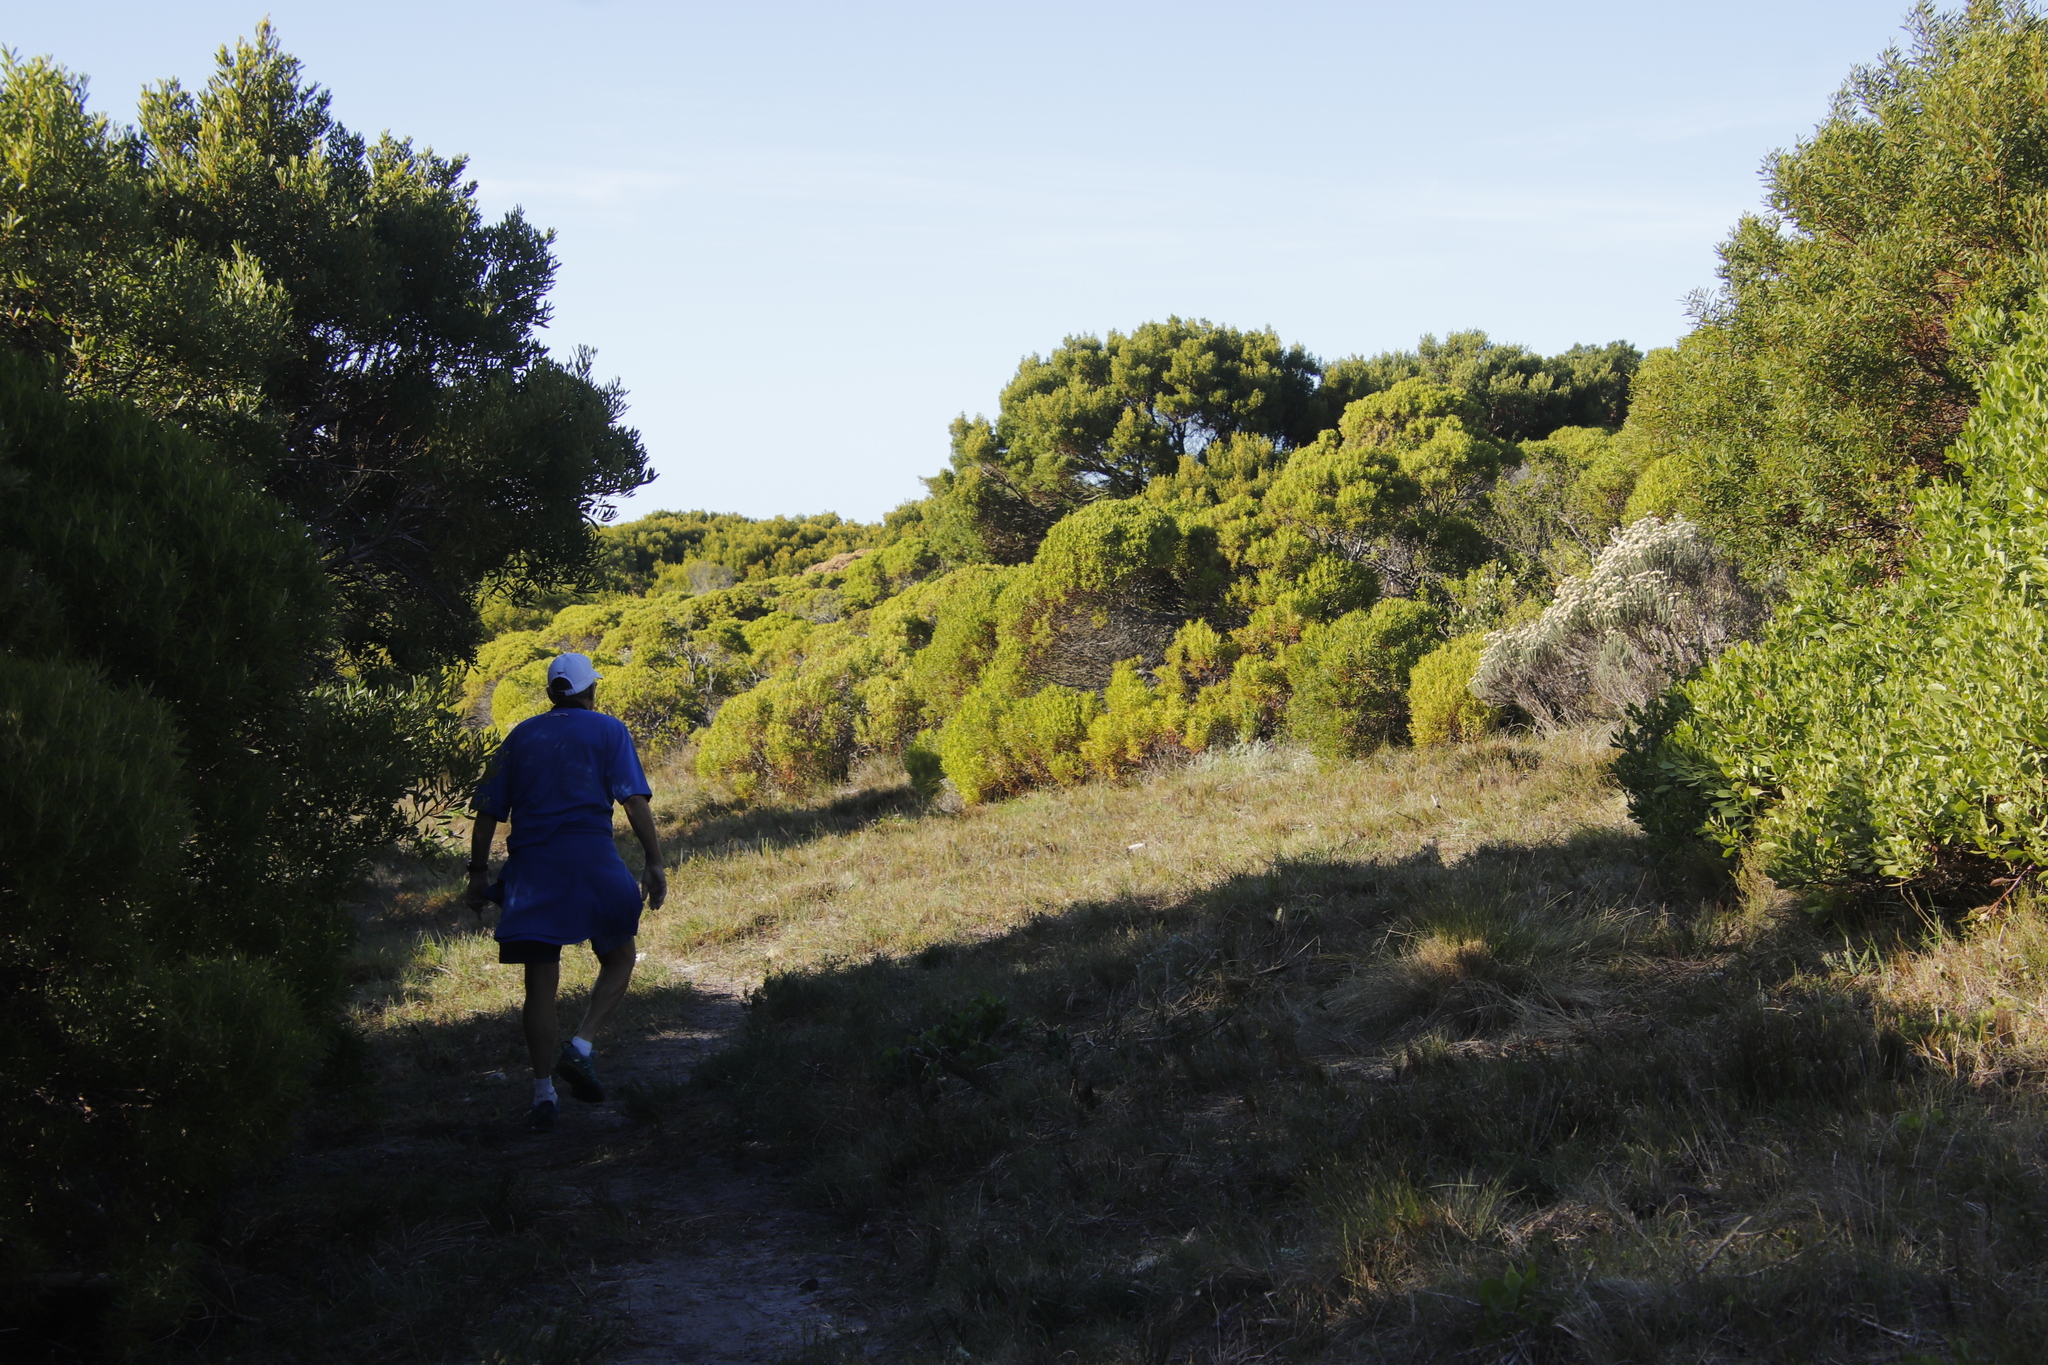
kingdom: Plantae
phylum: Tracheophyta
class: Magnoliopsida
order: Proteales
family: Proteaceae
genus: Leucadendron
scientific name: Leucadendron coniferum
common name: Dune conebush
